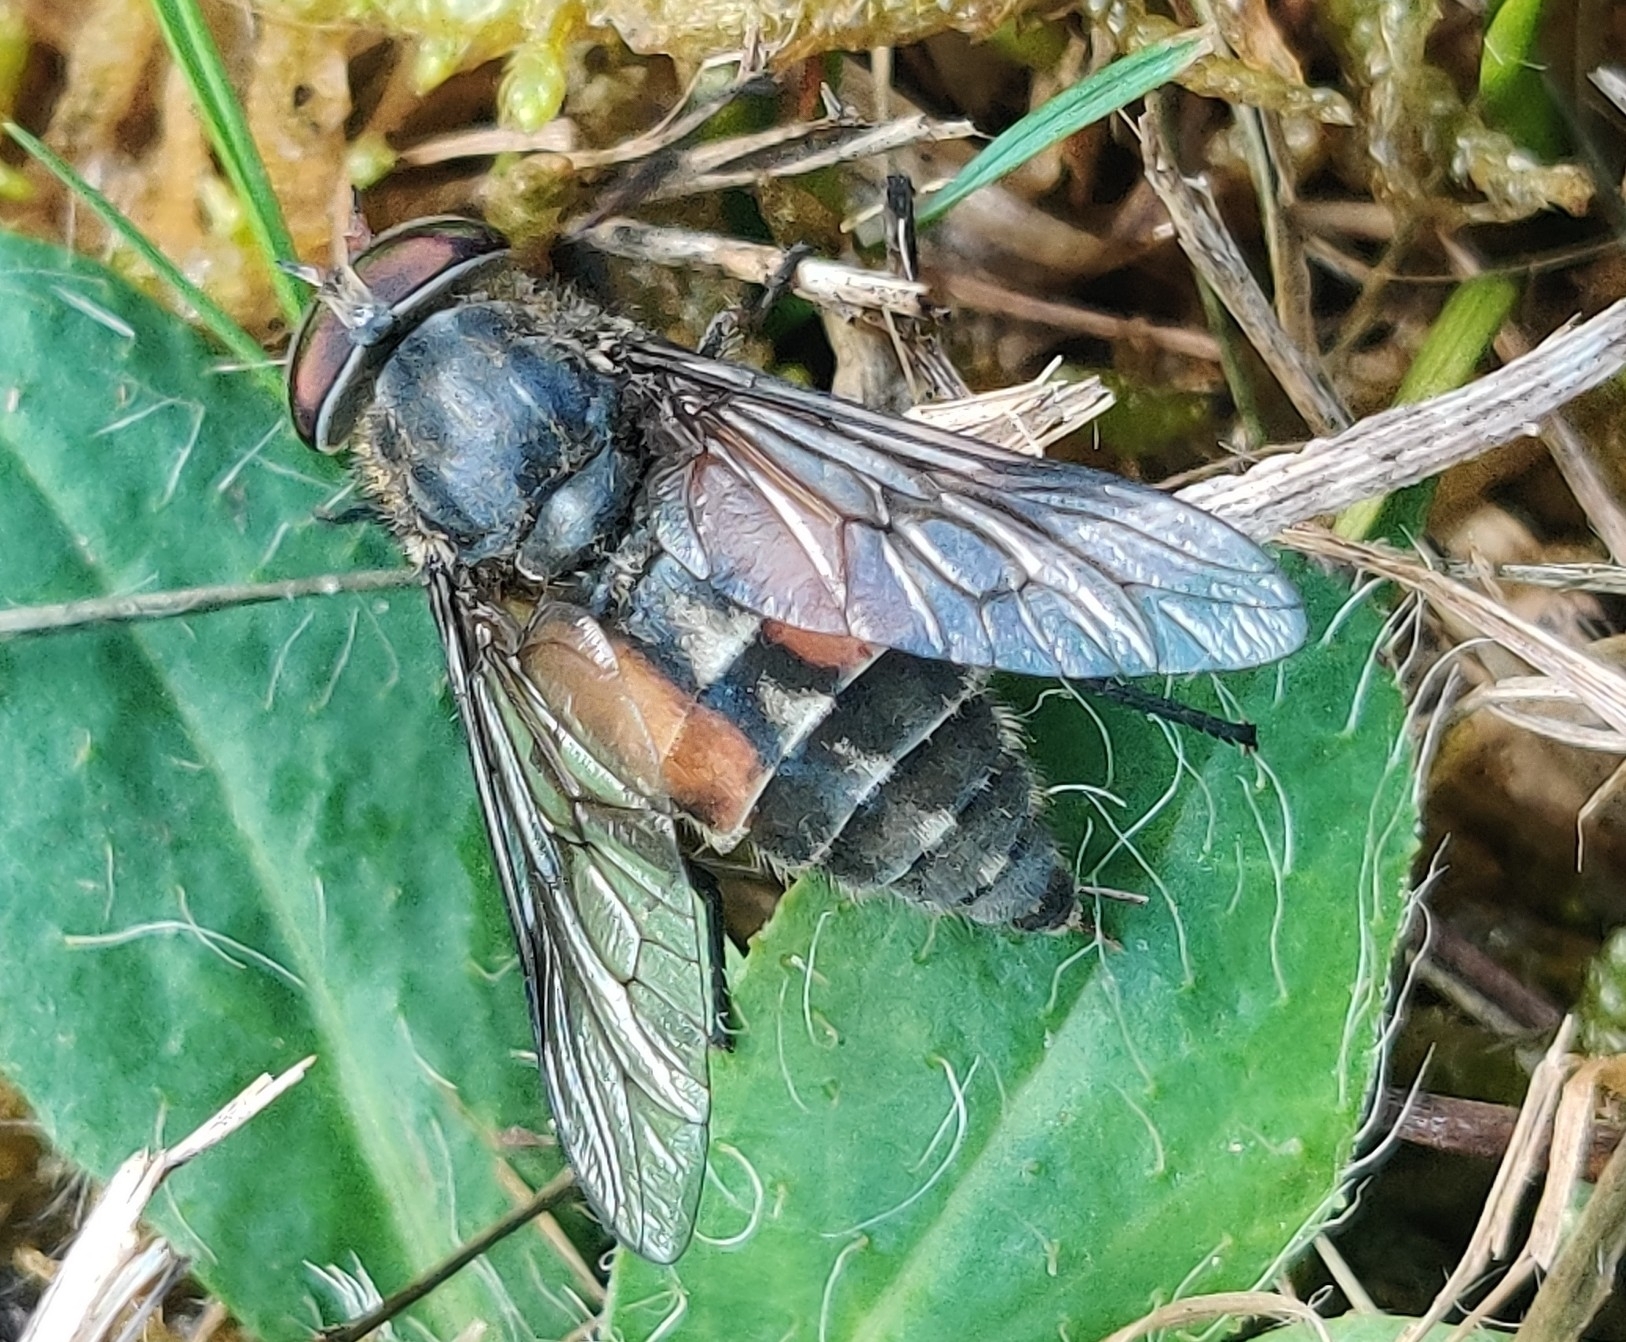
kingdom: Animalia
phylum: Arthropoda
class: Insecta
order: Diptera
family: Tabanidae
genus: Hybomitra
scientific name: Hybomitra bimaculata
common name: Hairy-legged horsefly
